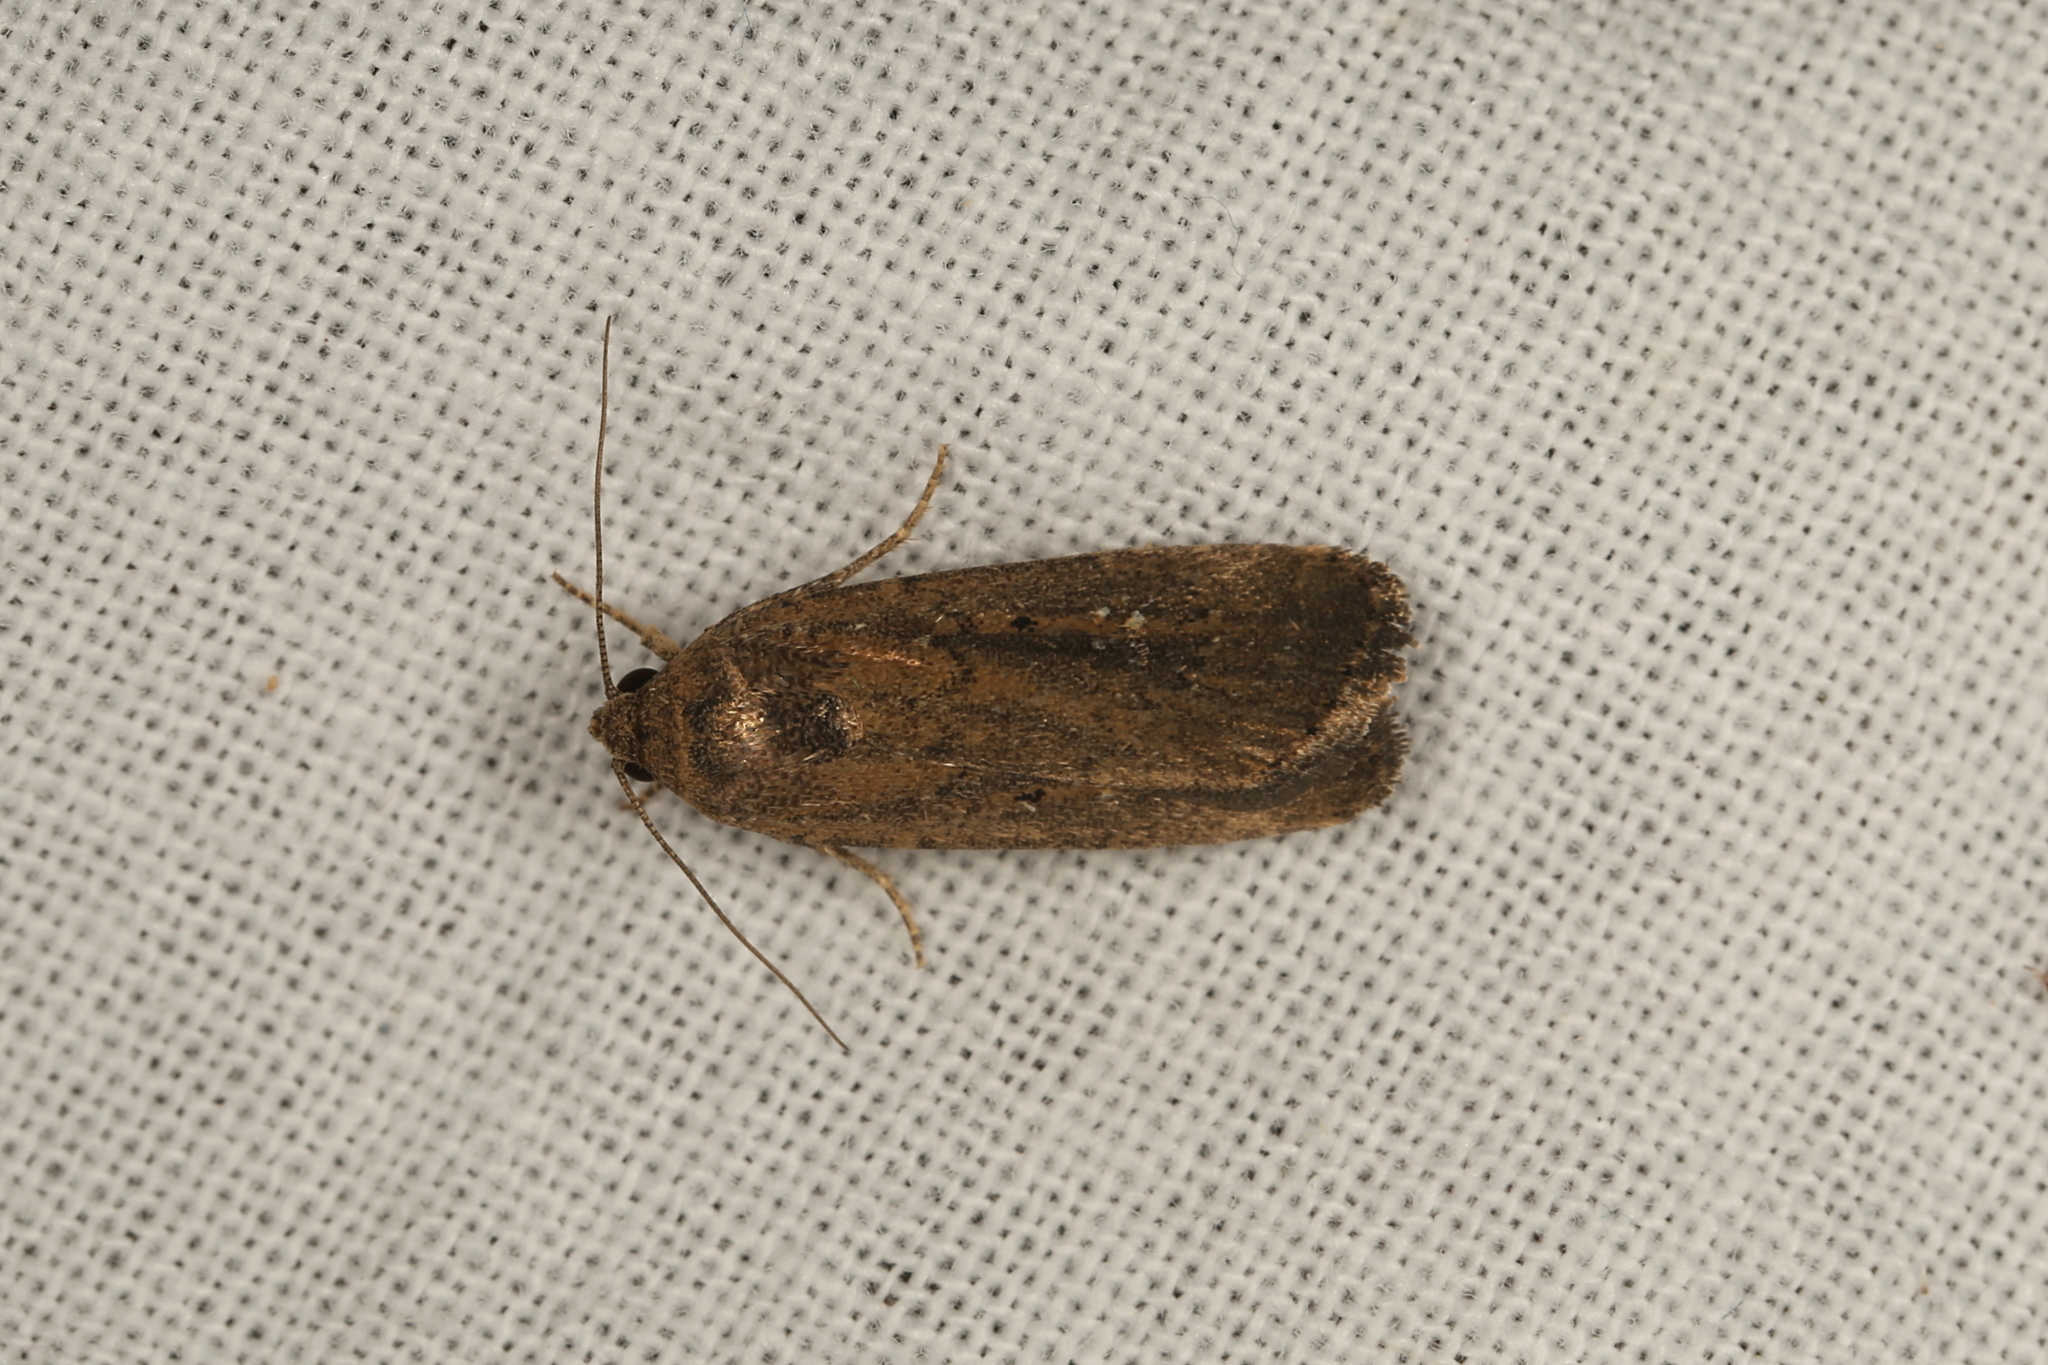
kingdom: Animalia
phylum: Arthropoda
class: Insecta
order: Lepidoptera
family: Noctuidae
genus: Athetis
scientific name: Athetis tenuis
